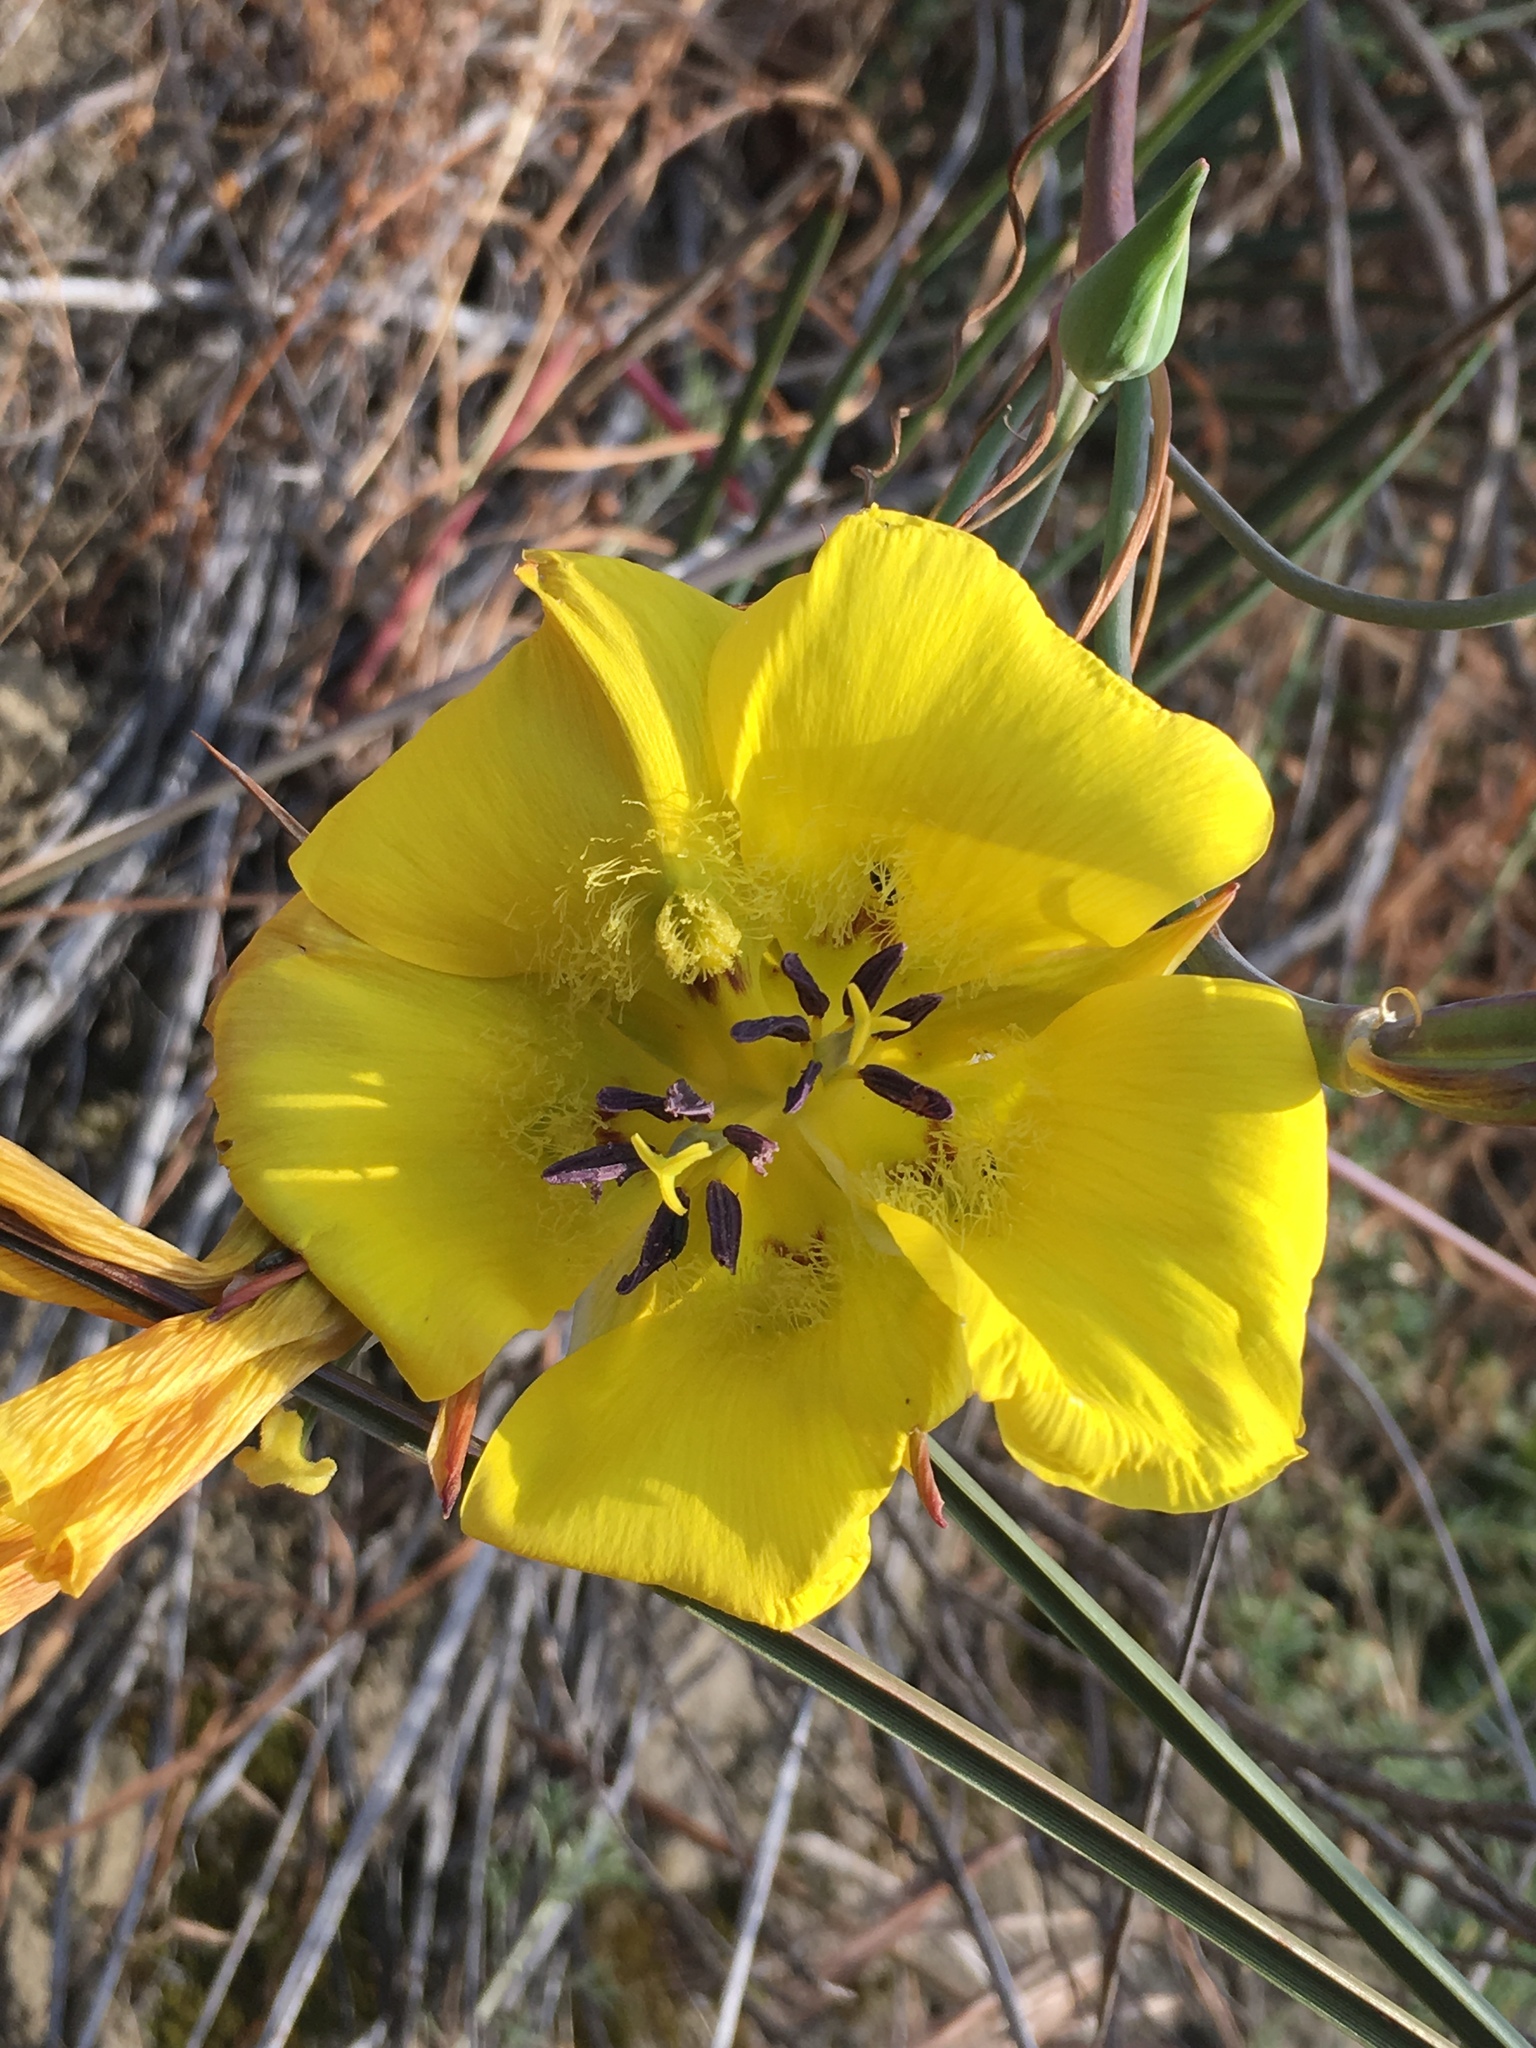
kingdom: Plantae
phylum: Tracheophyta
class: Liliopsida
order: Liliales
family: Liliaceae
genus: Calochortus
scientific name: Calochortus clavatus
